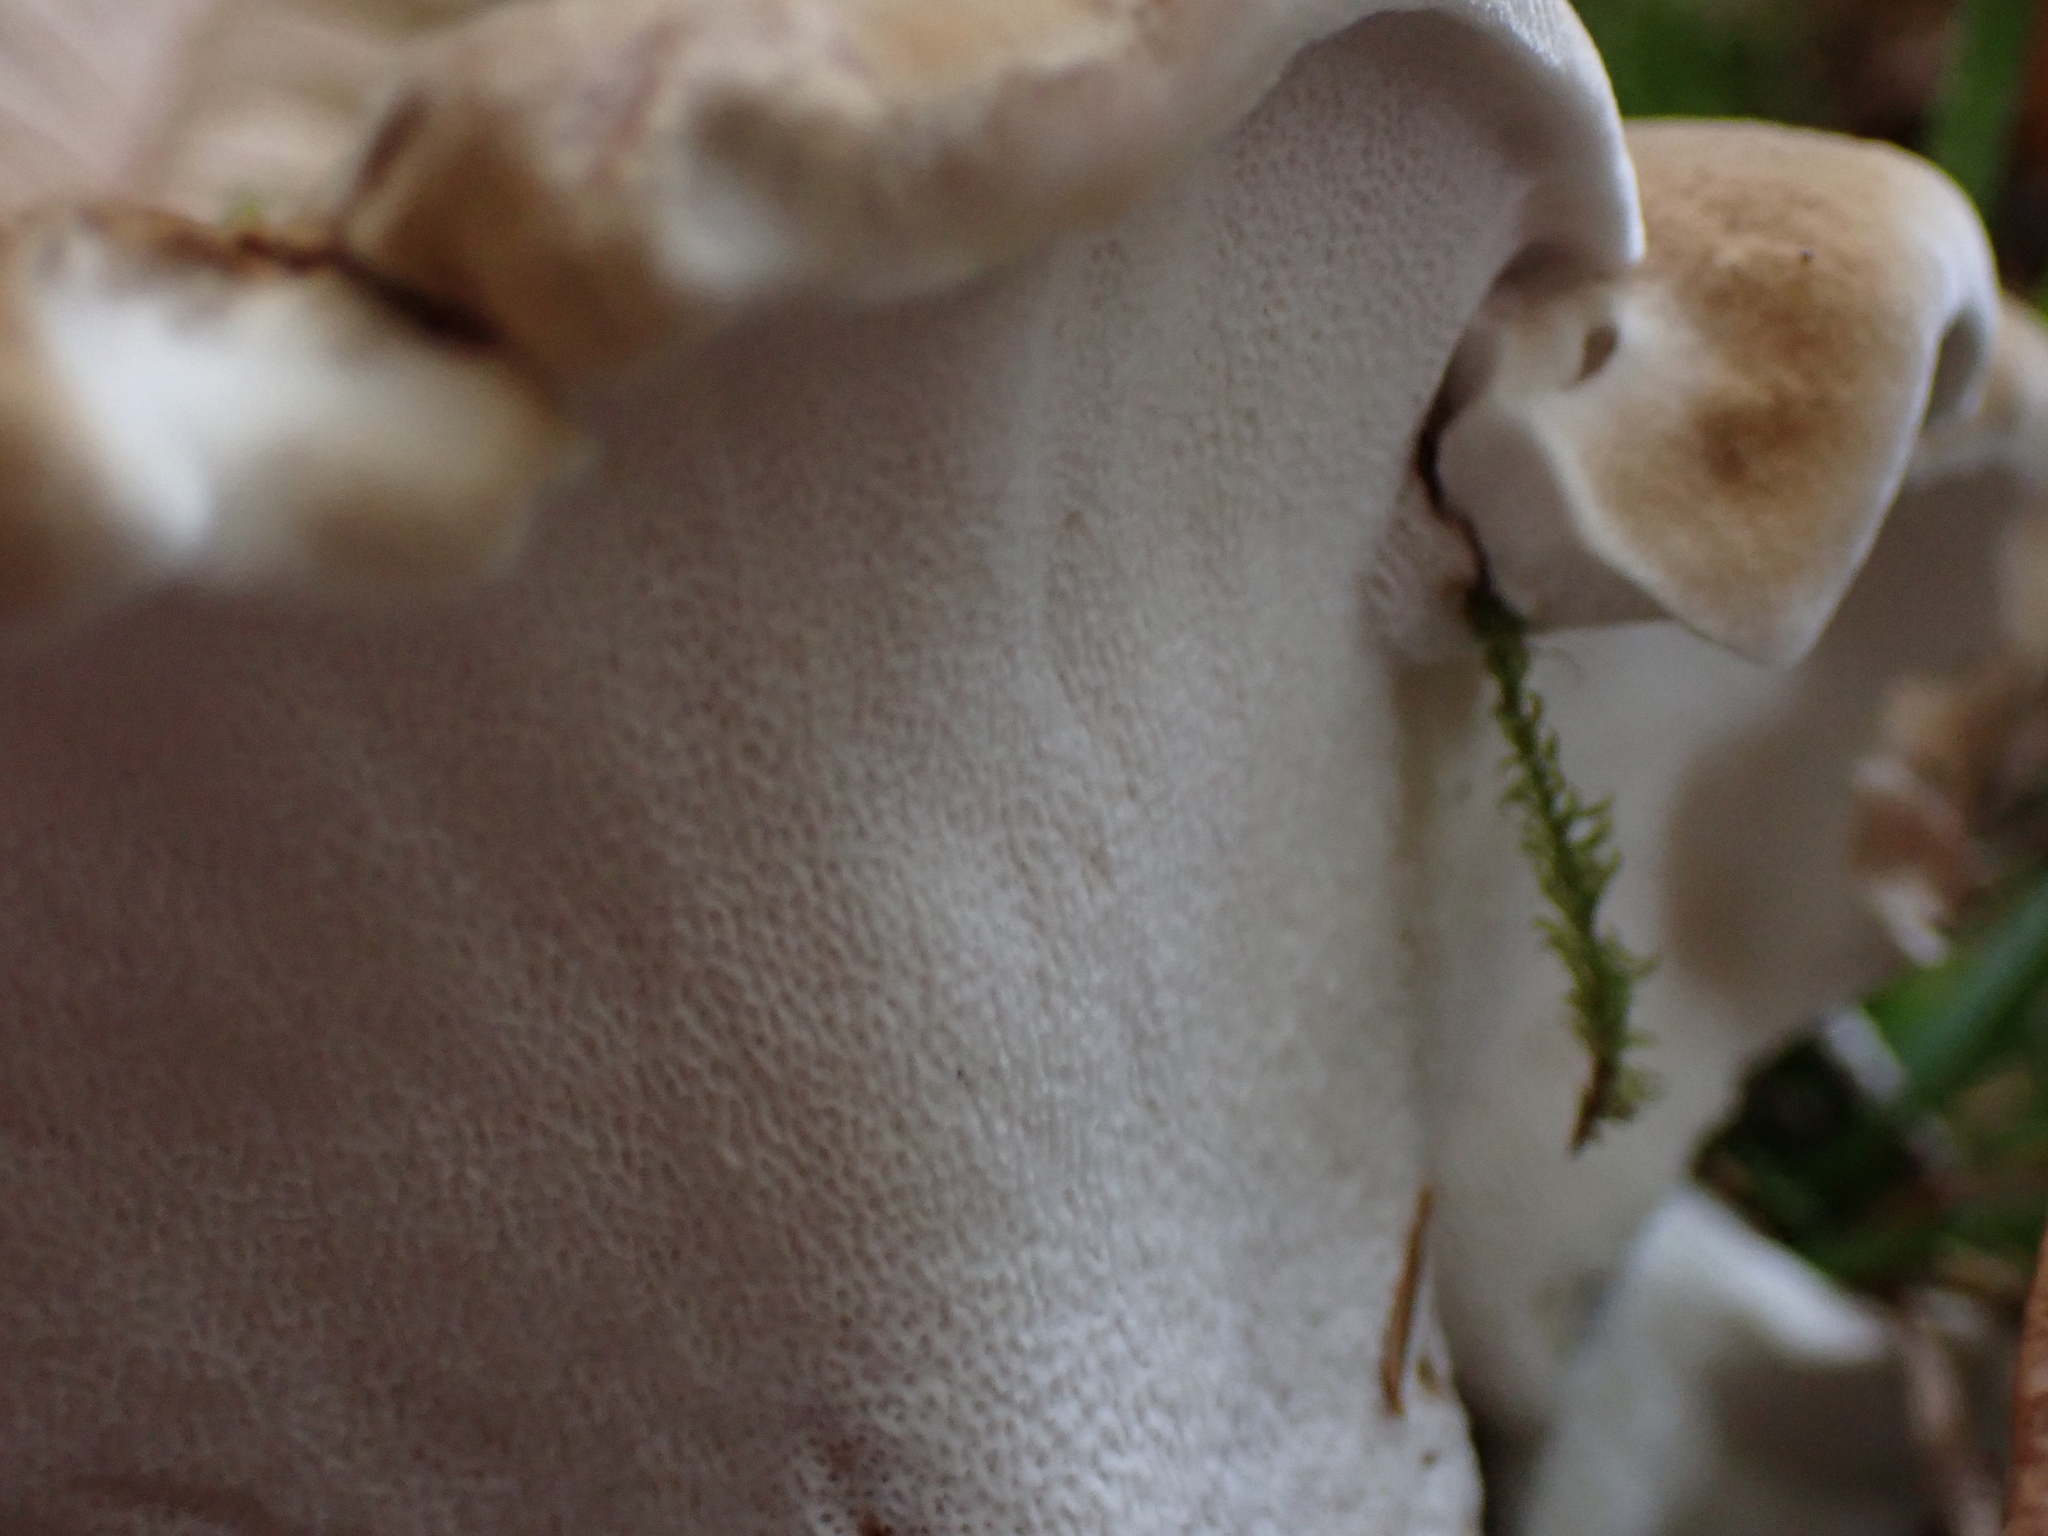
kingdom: Fungi
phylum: Basidiomycota
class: Agaricomycetes
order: Russulales
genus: Laeticutis
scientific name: Laeticutis cristata
